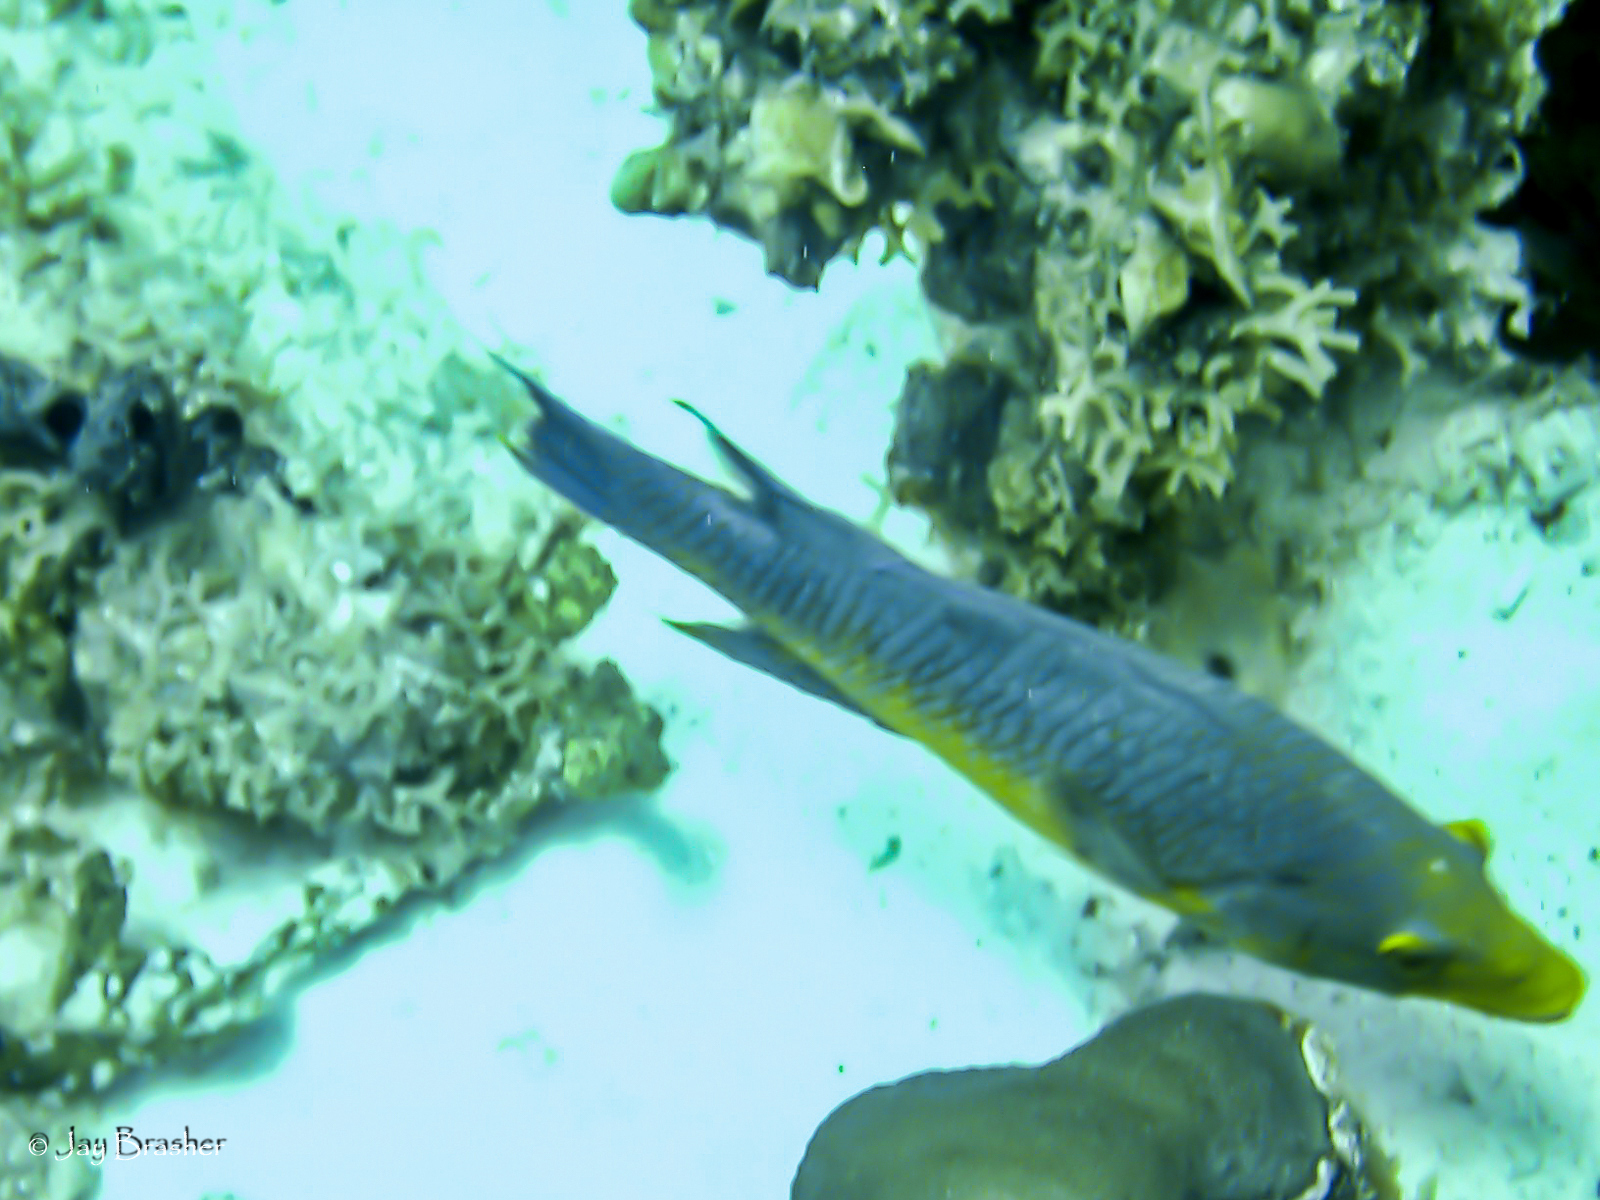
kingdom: Animalia
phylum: Chordata
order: Perciformes
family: Labridae
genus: Bodianus
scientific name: Bodianus rufus
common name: Spanish hogfish
